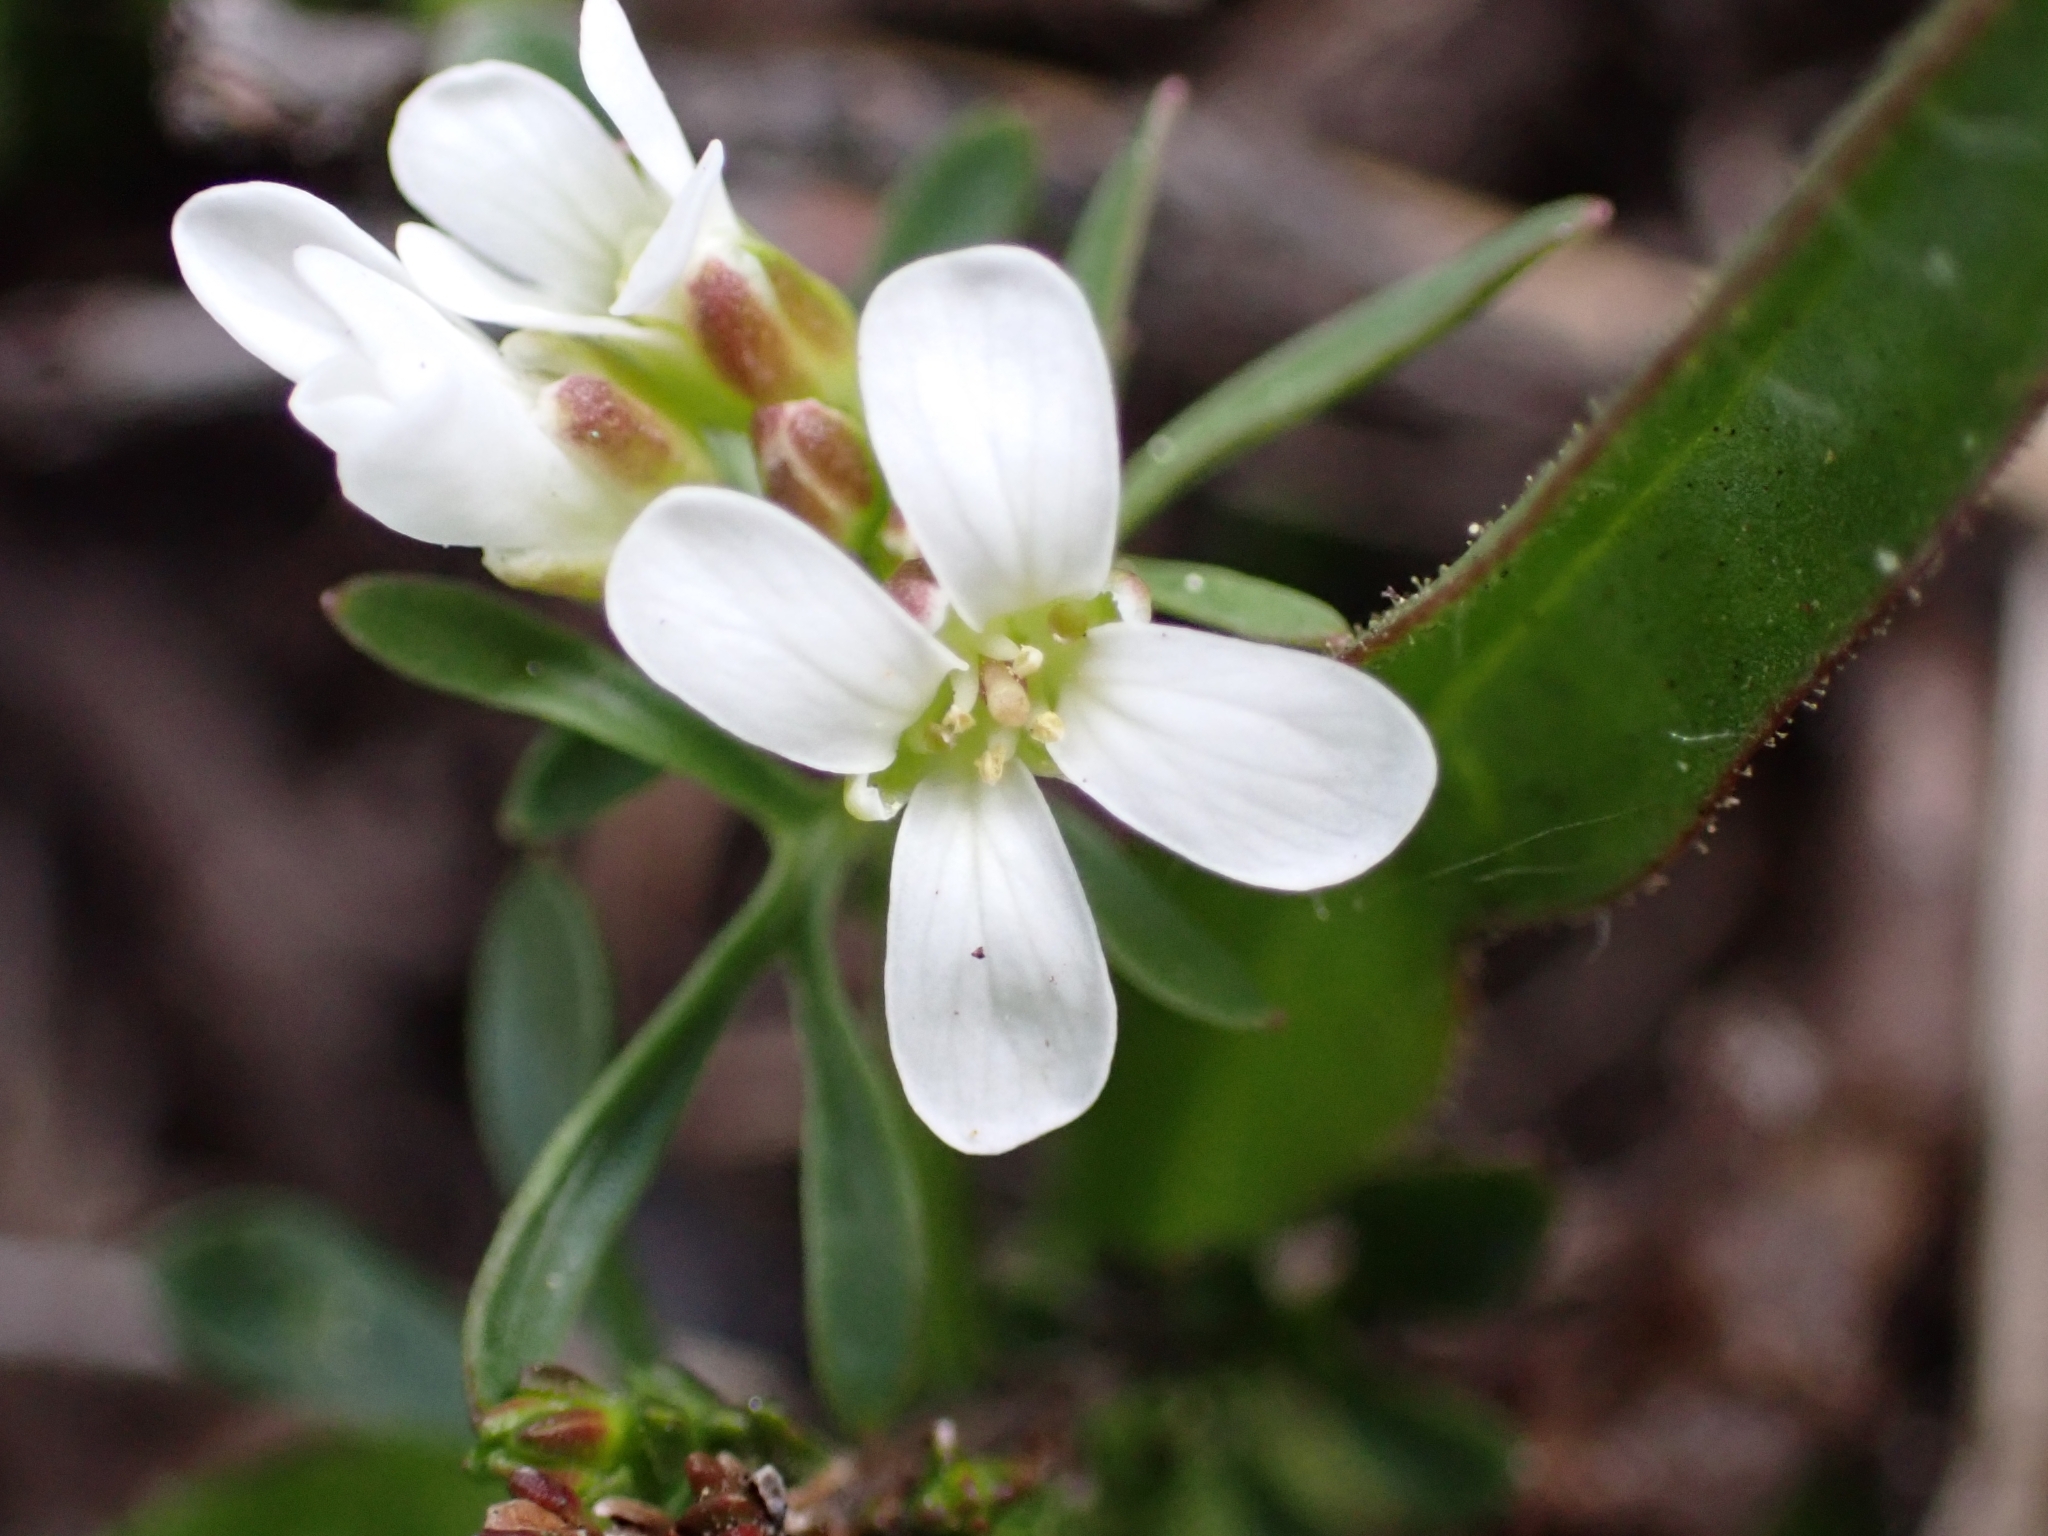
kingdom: Plantae
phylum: Tracheophyta
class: Magnoliopsida
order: Brassicales
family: Brassicaceae
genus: Cardamine
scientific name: Cardamine resedifolia
